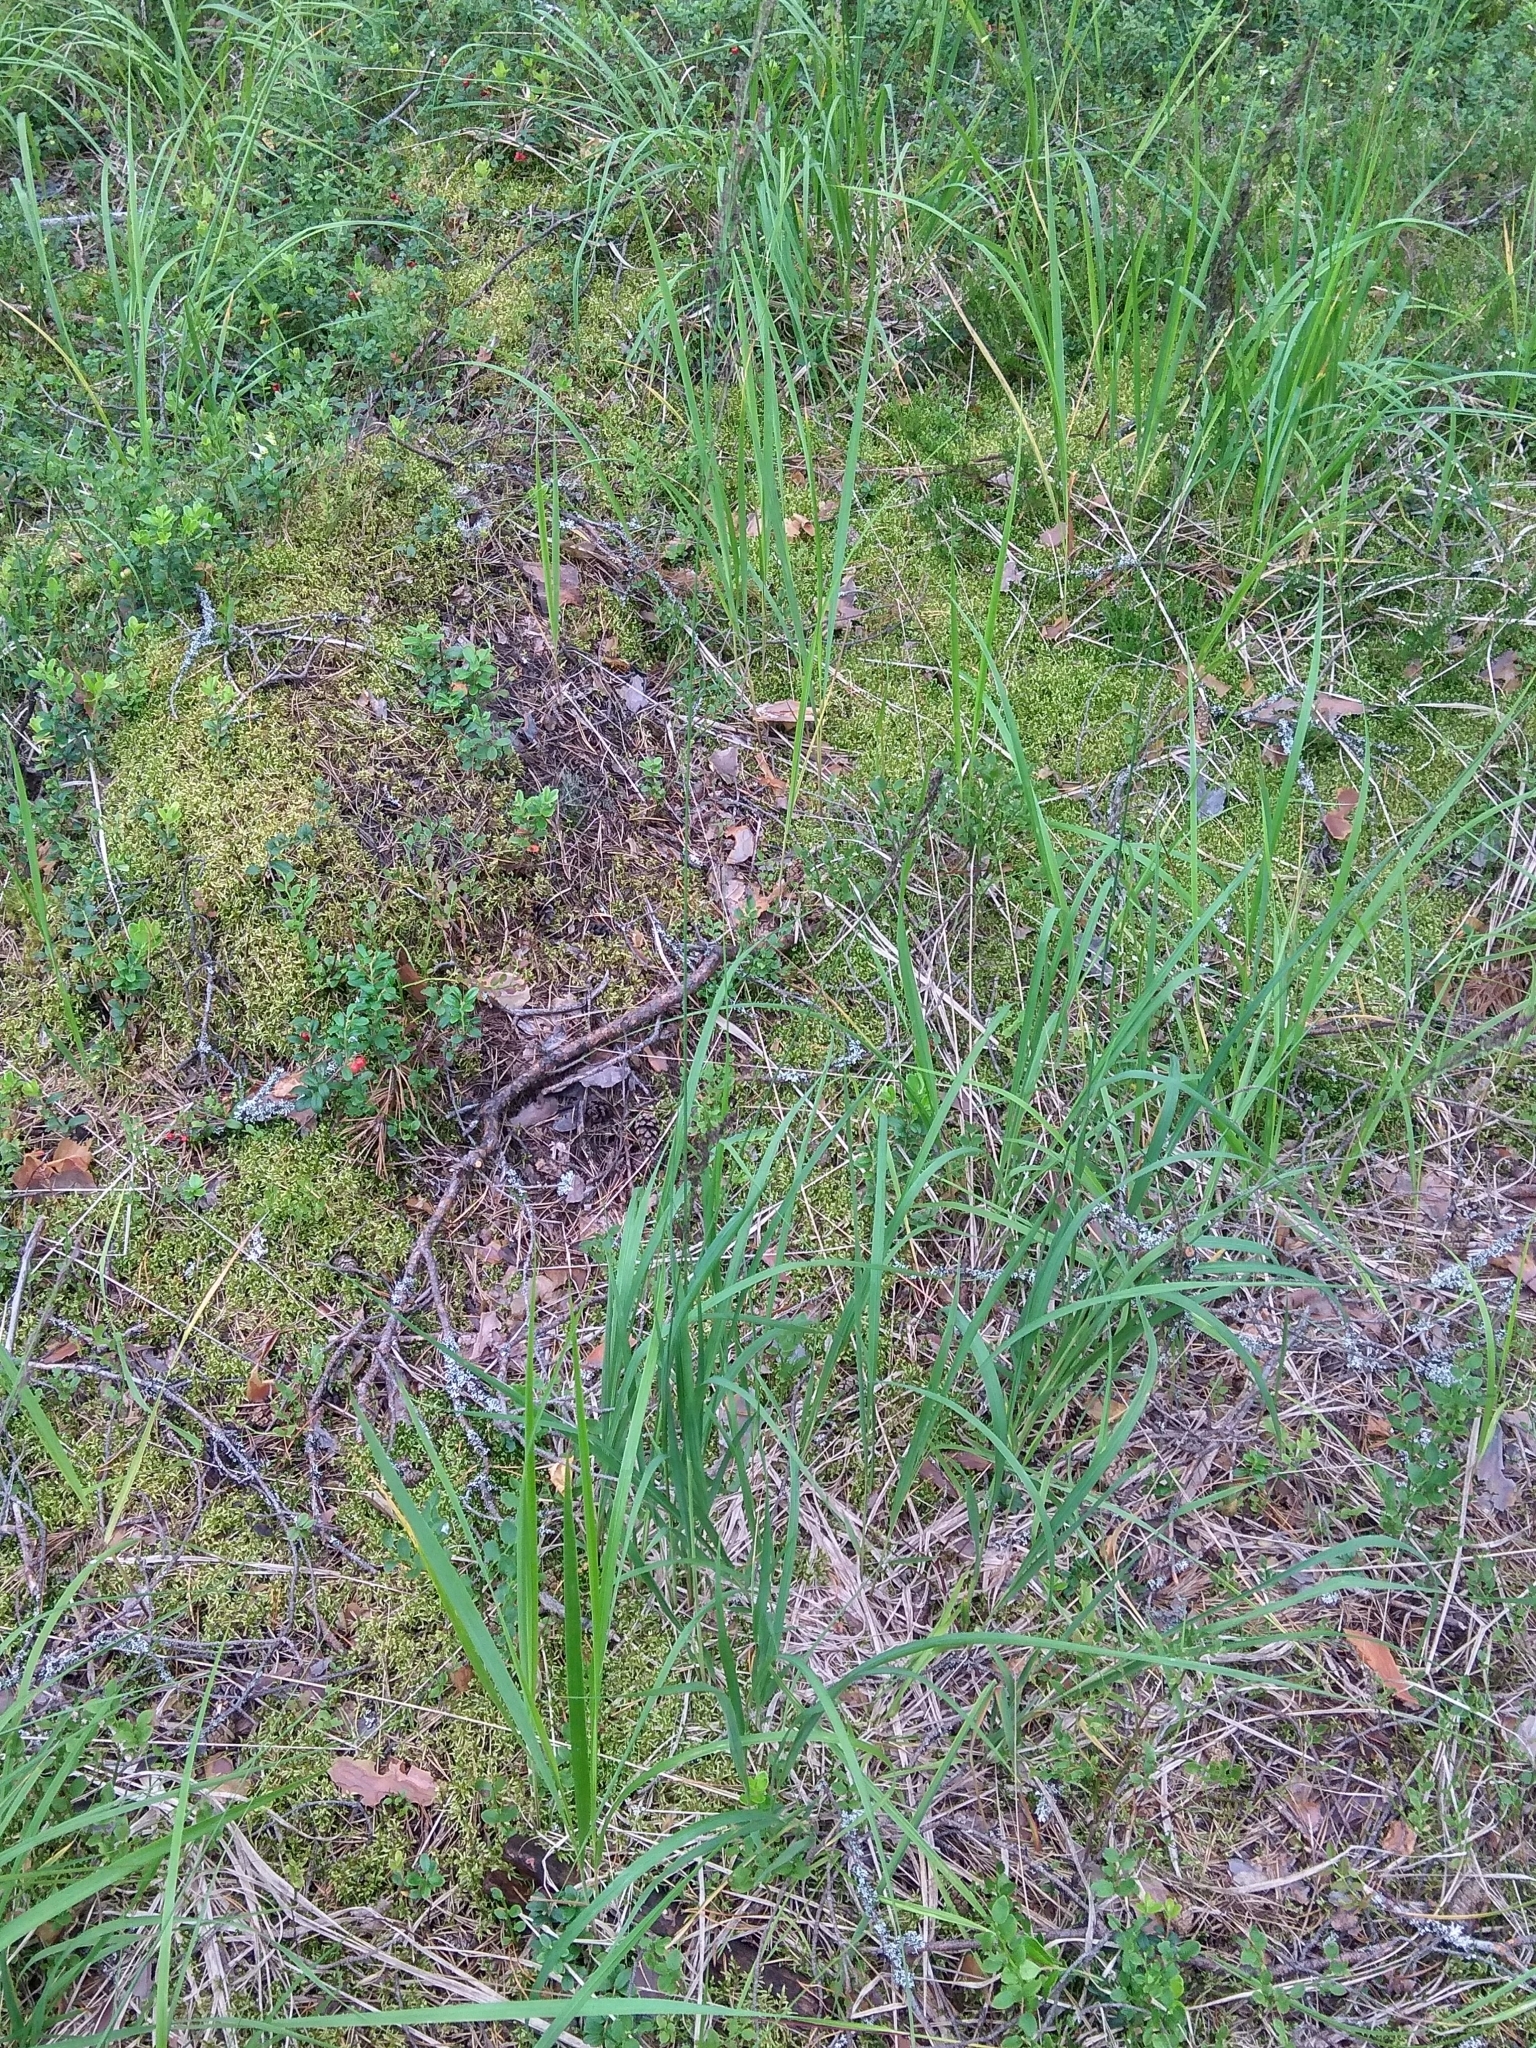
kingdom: Plantae
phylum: Tracheophyta
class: Liliopsida
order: Poales
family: Poaceae
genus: Molinia
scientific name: Molinia caerulea
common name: Purple moor-grass
